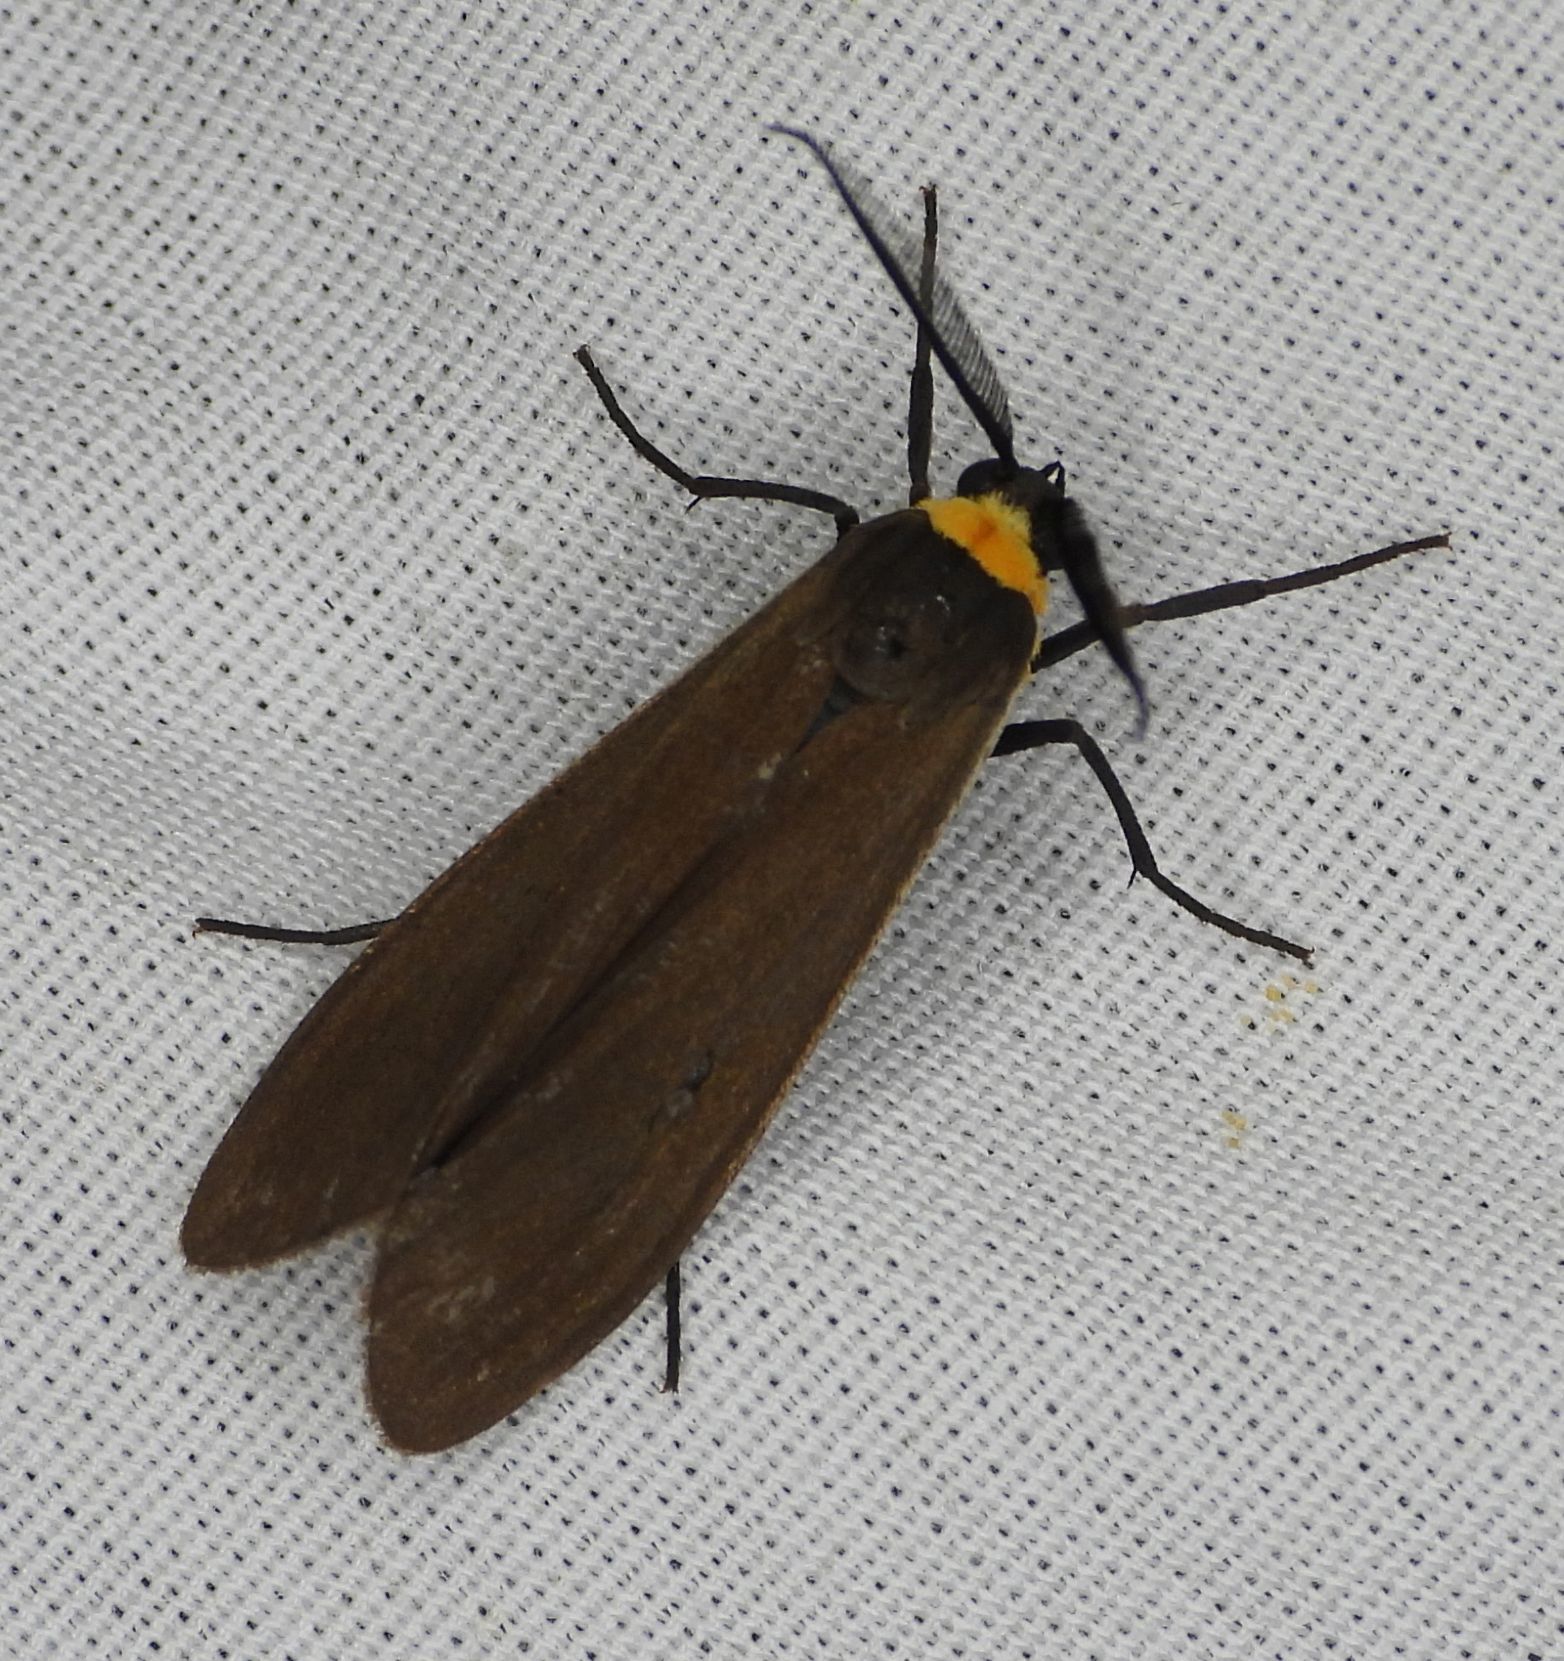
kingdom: Animalia
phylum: Arthropoda
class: Insecta
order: Lepidoptera
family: Erebidae
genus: Cisseps
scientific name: Cisseps fulvicollis
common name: Yellow-collared scape moth
